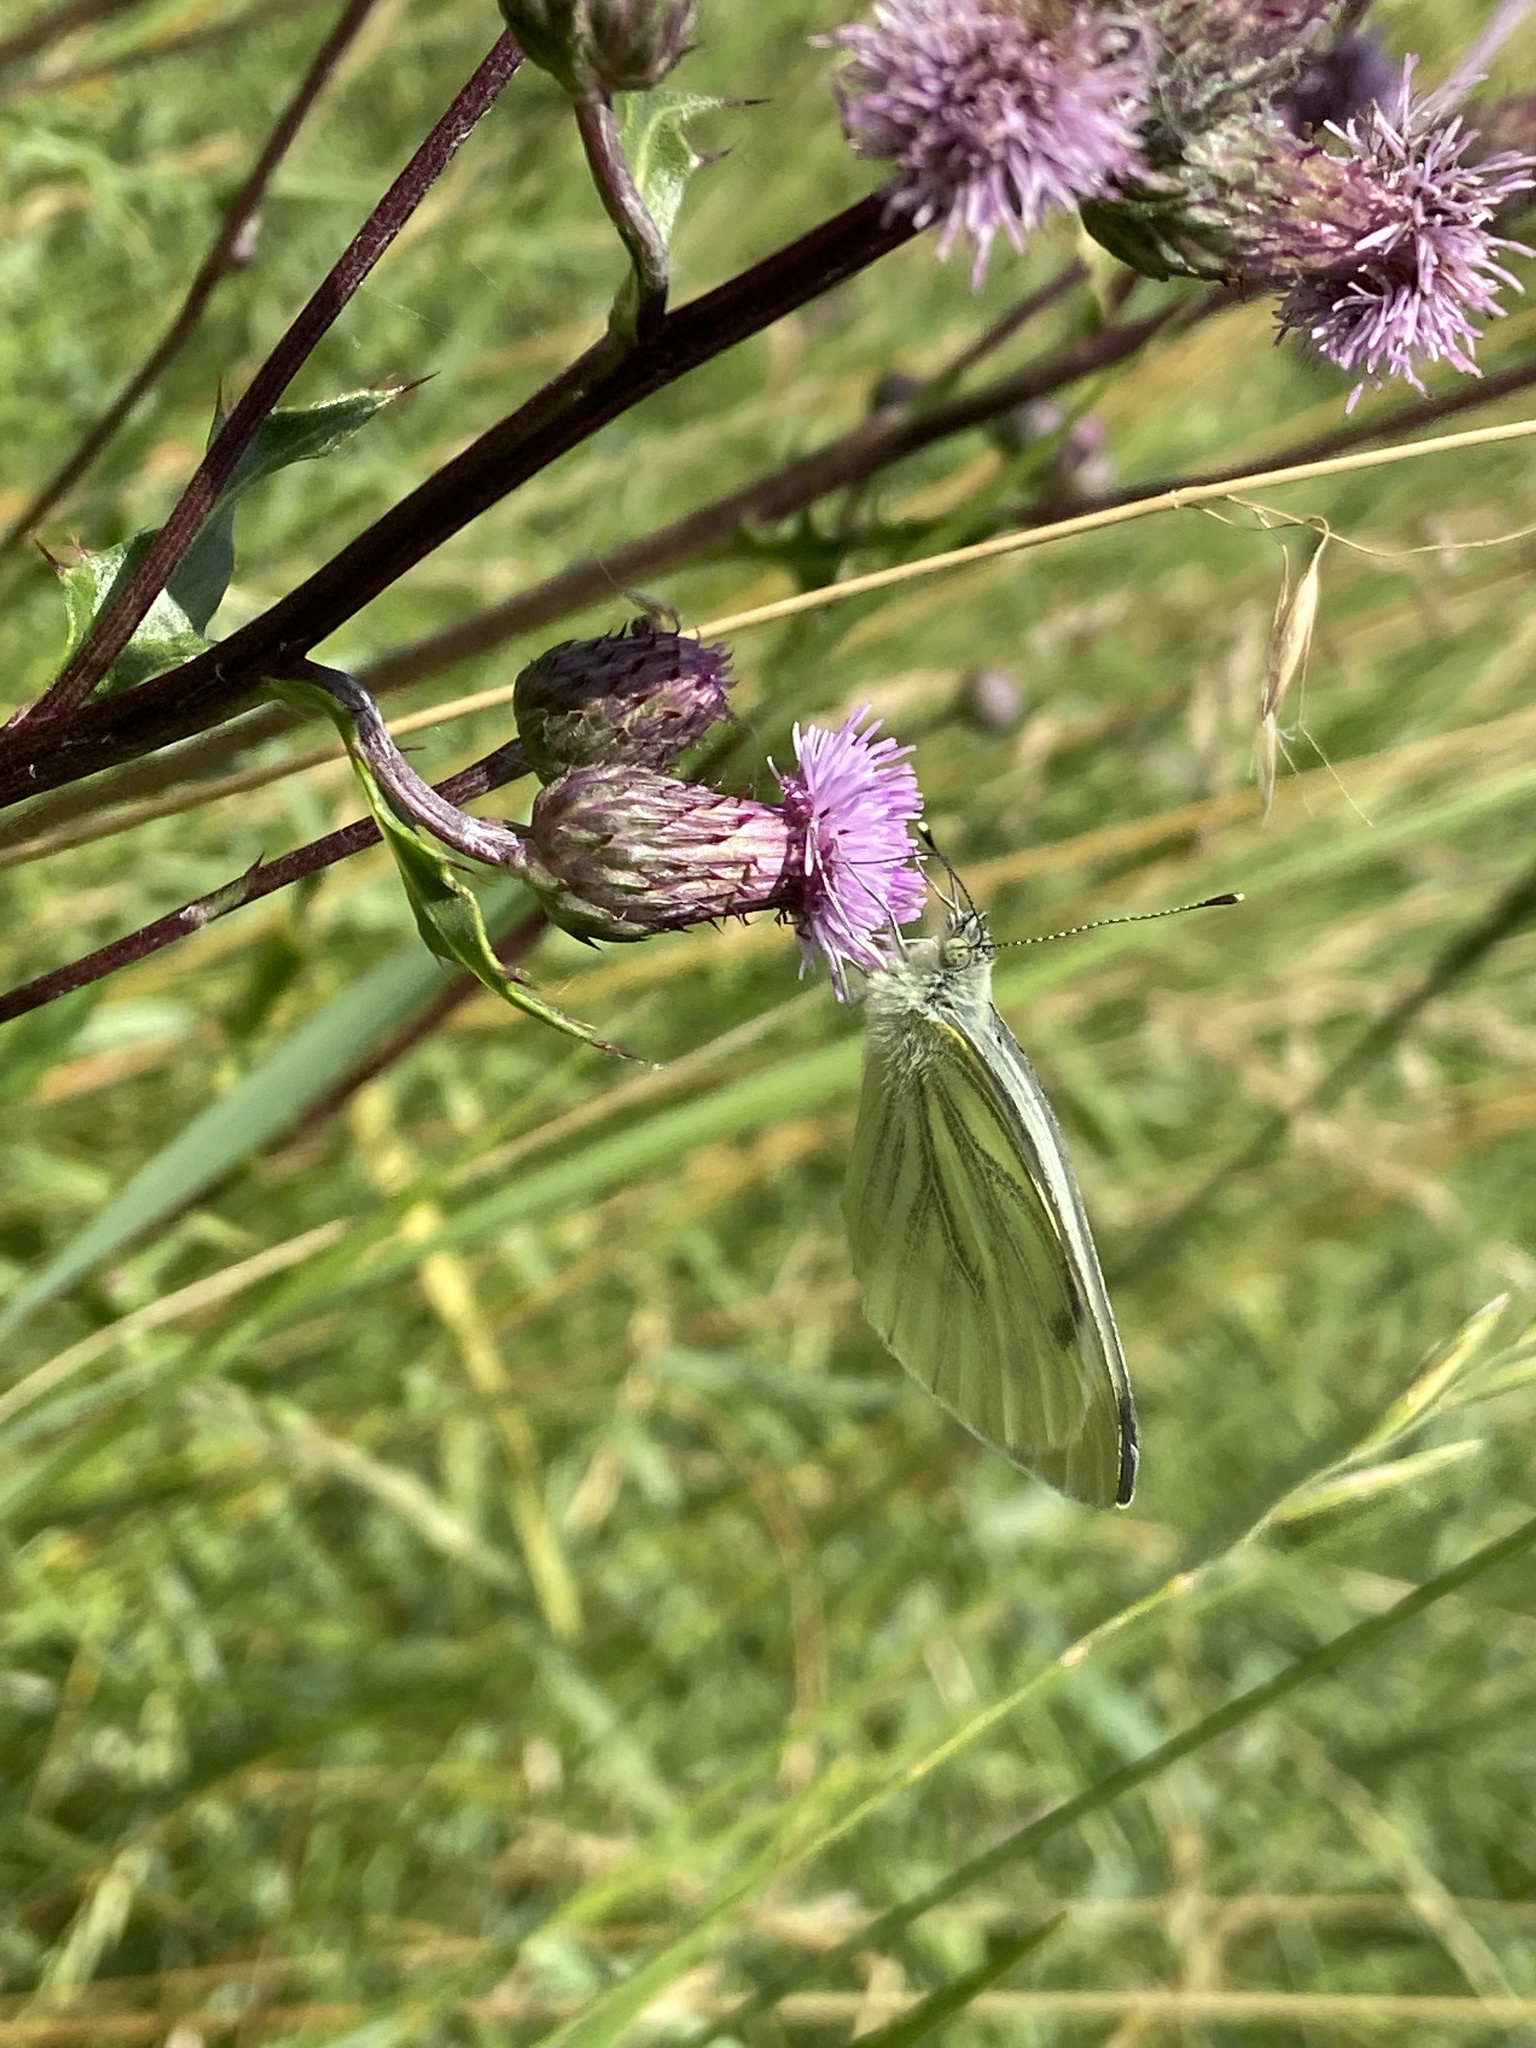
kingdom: Animalia
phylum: Arthropoda
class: Insecta
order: Lepidoptera
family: Pieridae
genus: Pieris
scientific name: Pieris napi
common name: Green-veined white
